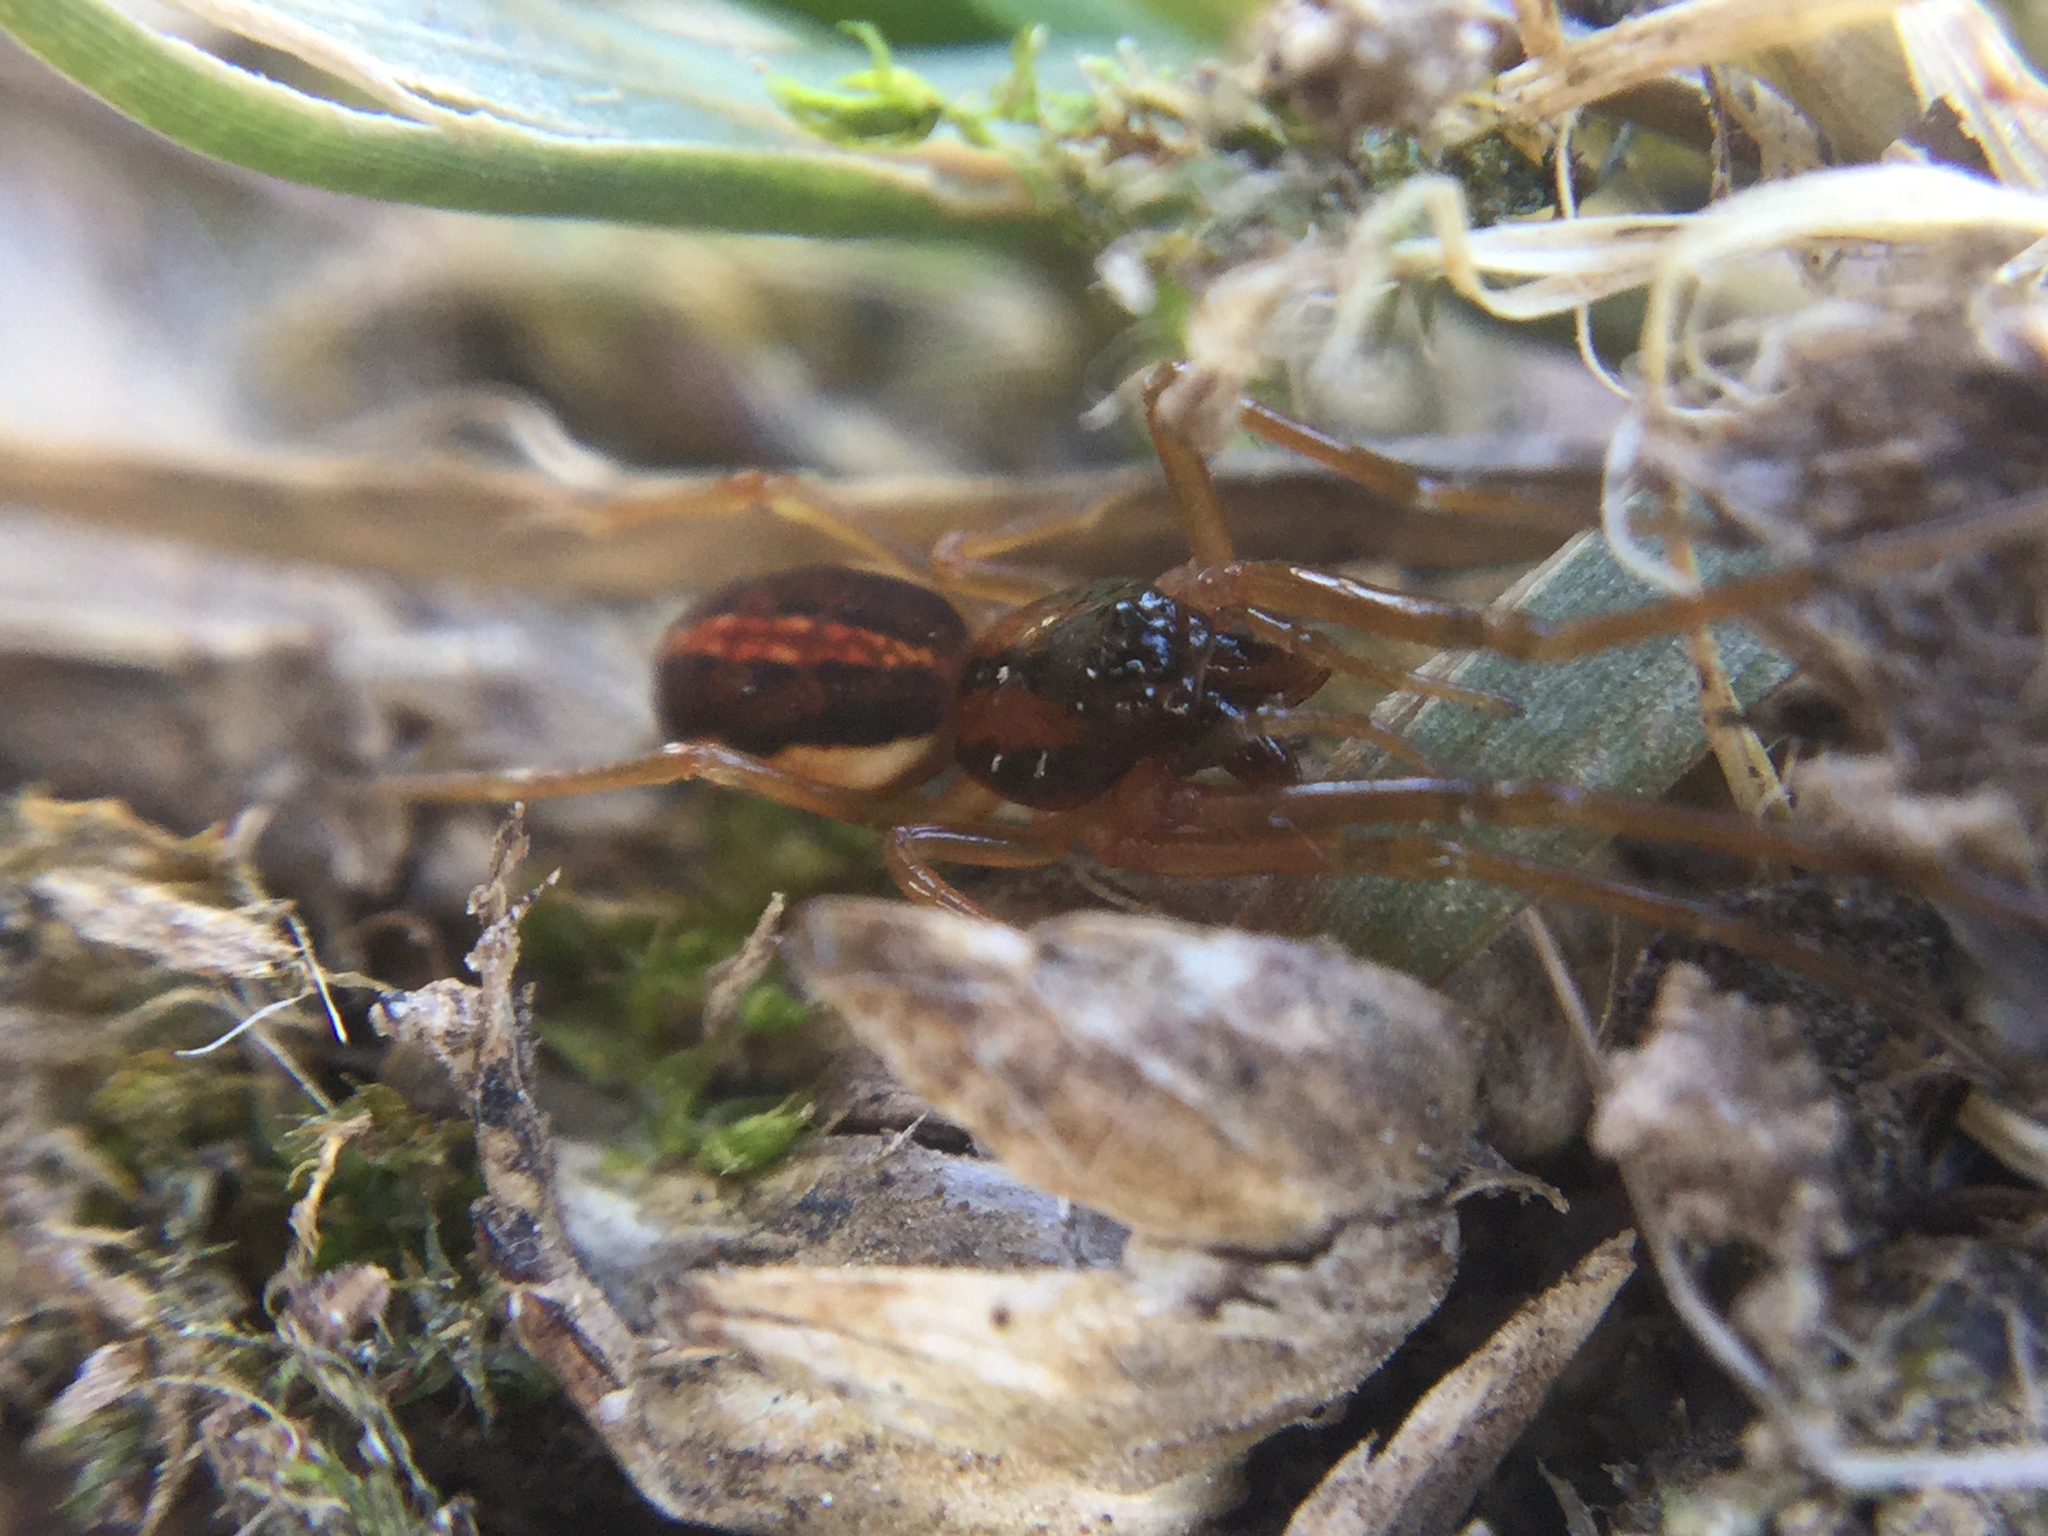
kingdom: Animalia
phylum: Arthropoda
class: Arachnida
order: Araneae
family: Tetragnathidae
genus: Pachygnatha
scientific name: Pachygnatha autumnalis
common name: Big-eyed thick-jawed spider
